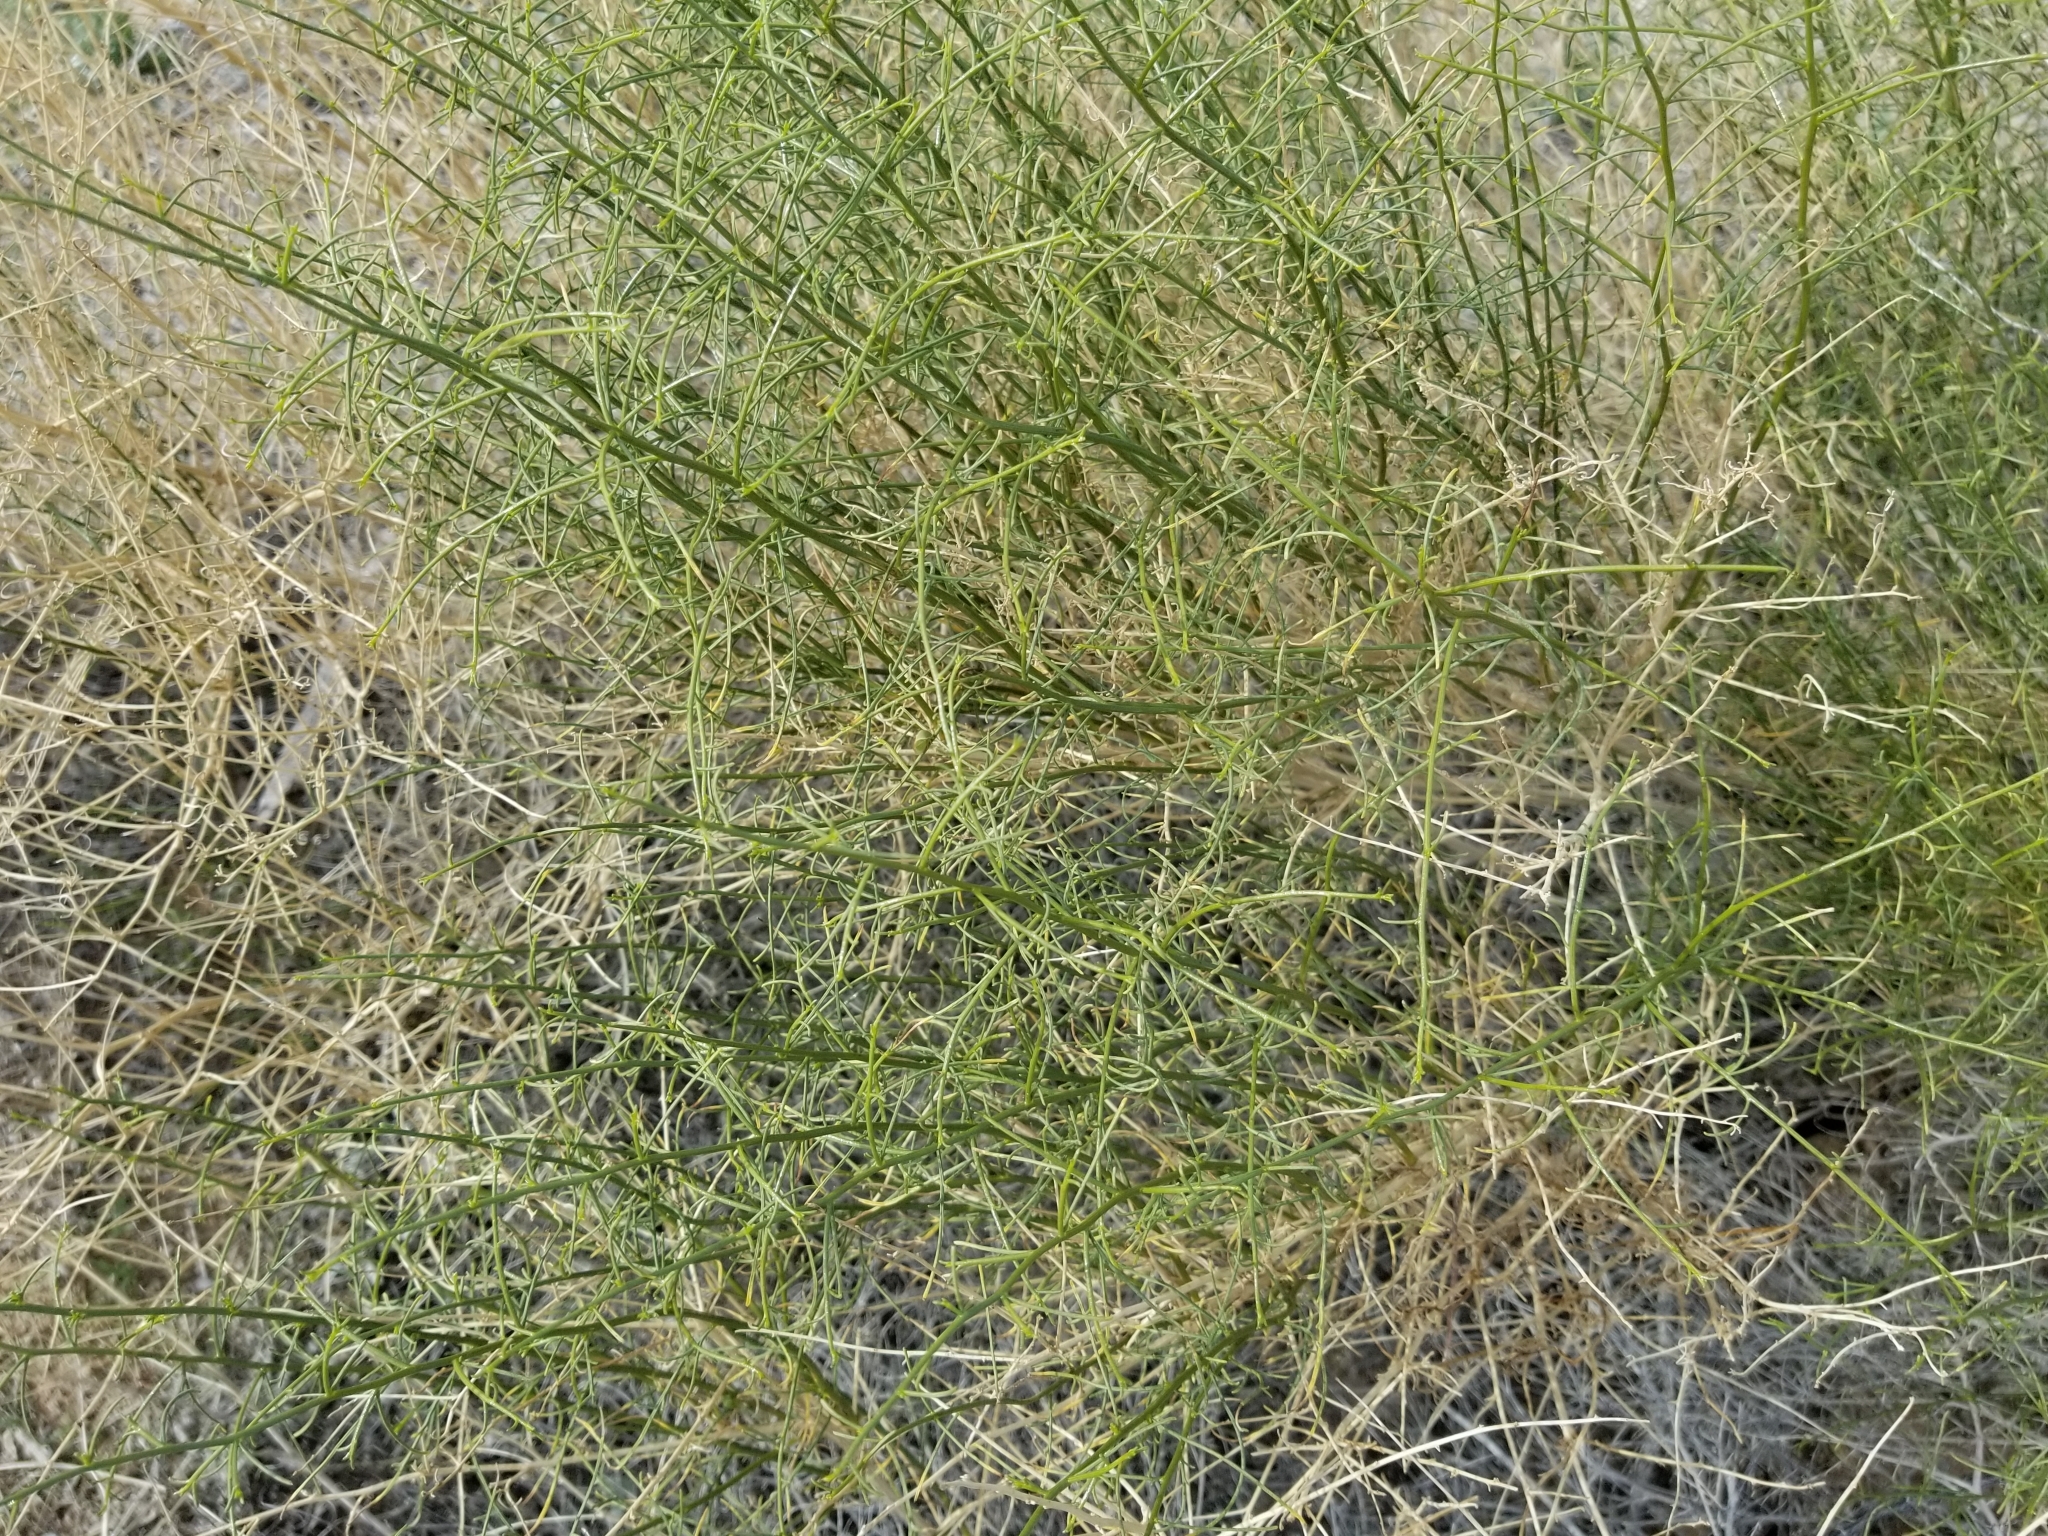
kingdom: Plantae
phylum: Tracheophyta
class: Magnoliopsida
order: Asterales
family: Asteraceae
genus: Ambrosia
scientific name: Ambrosia salsola
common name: Burrobrush
